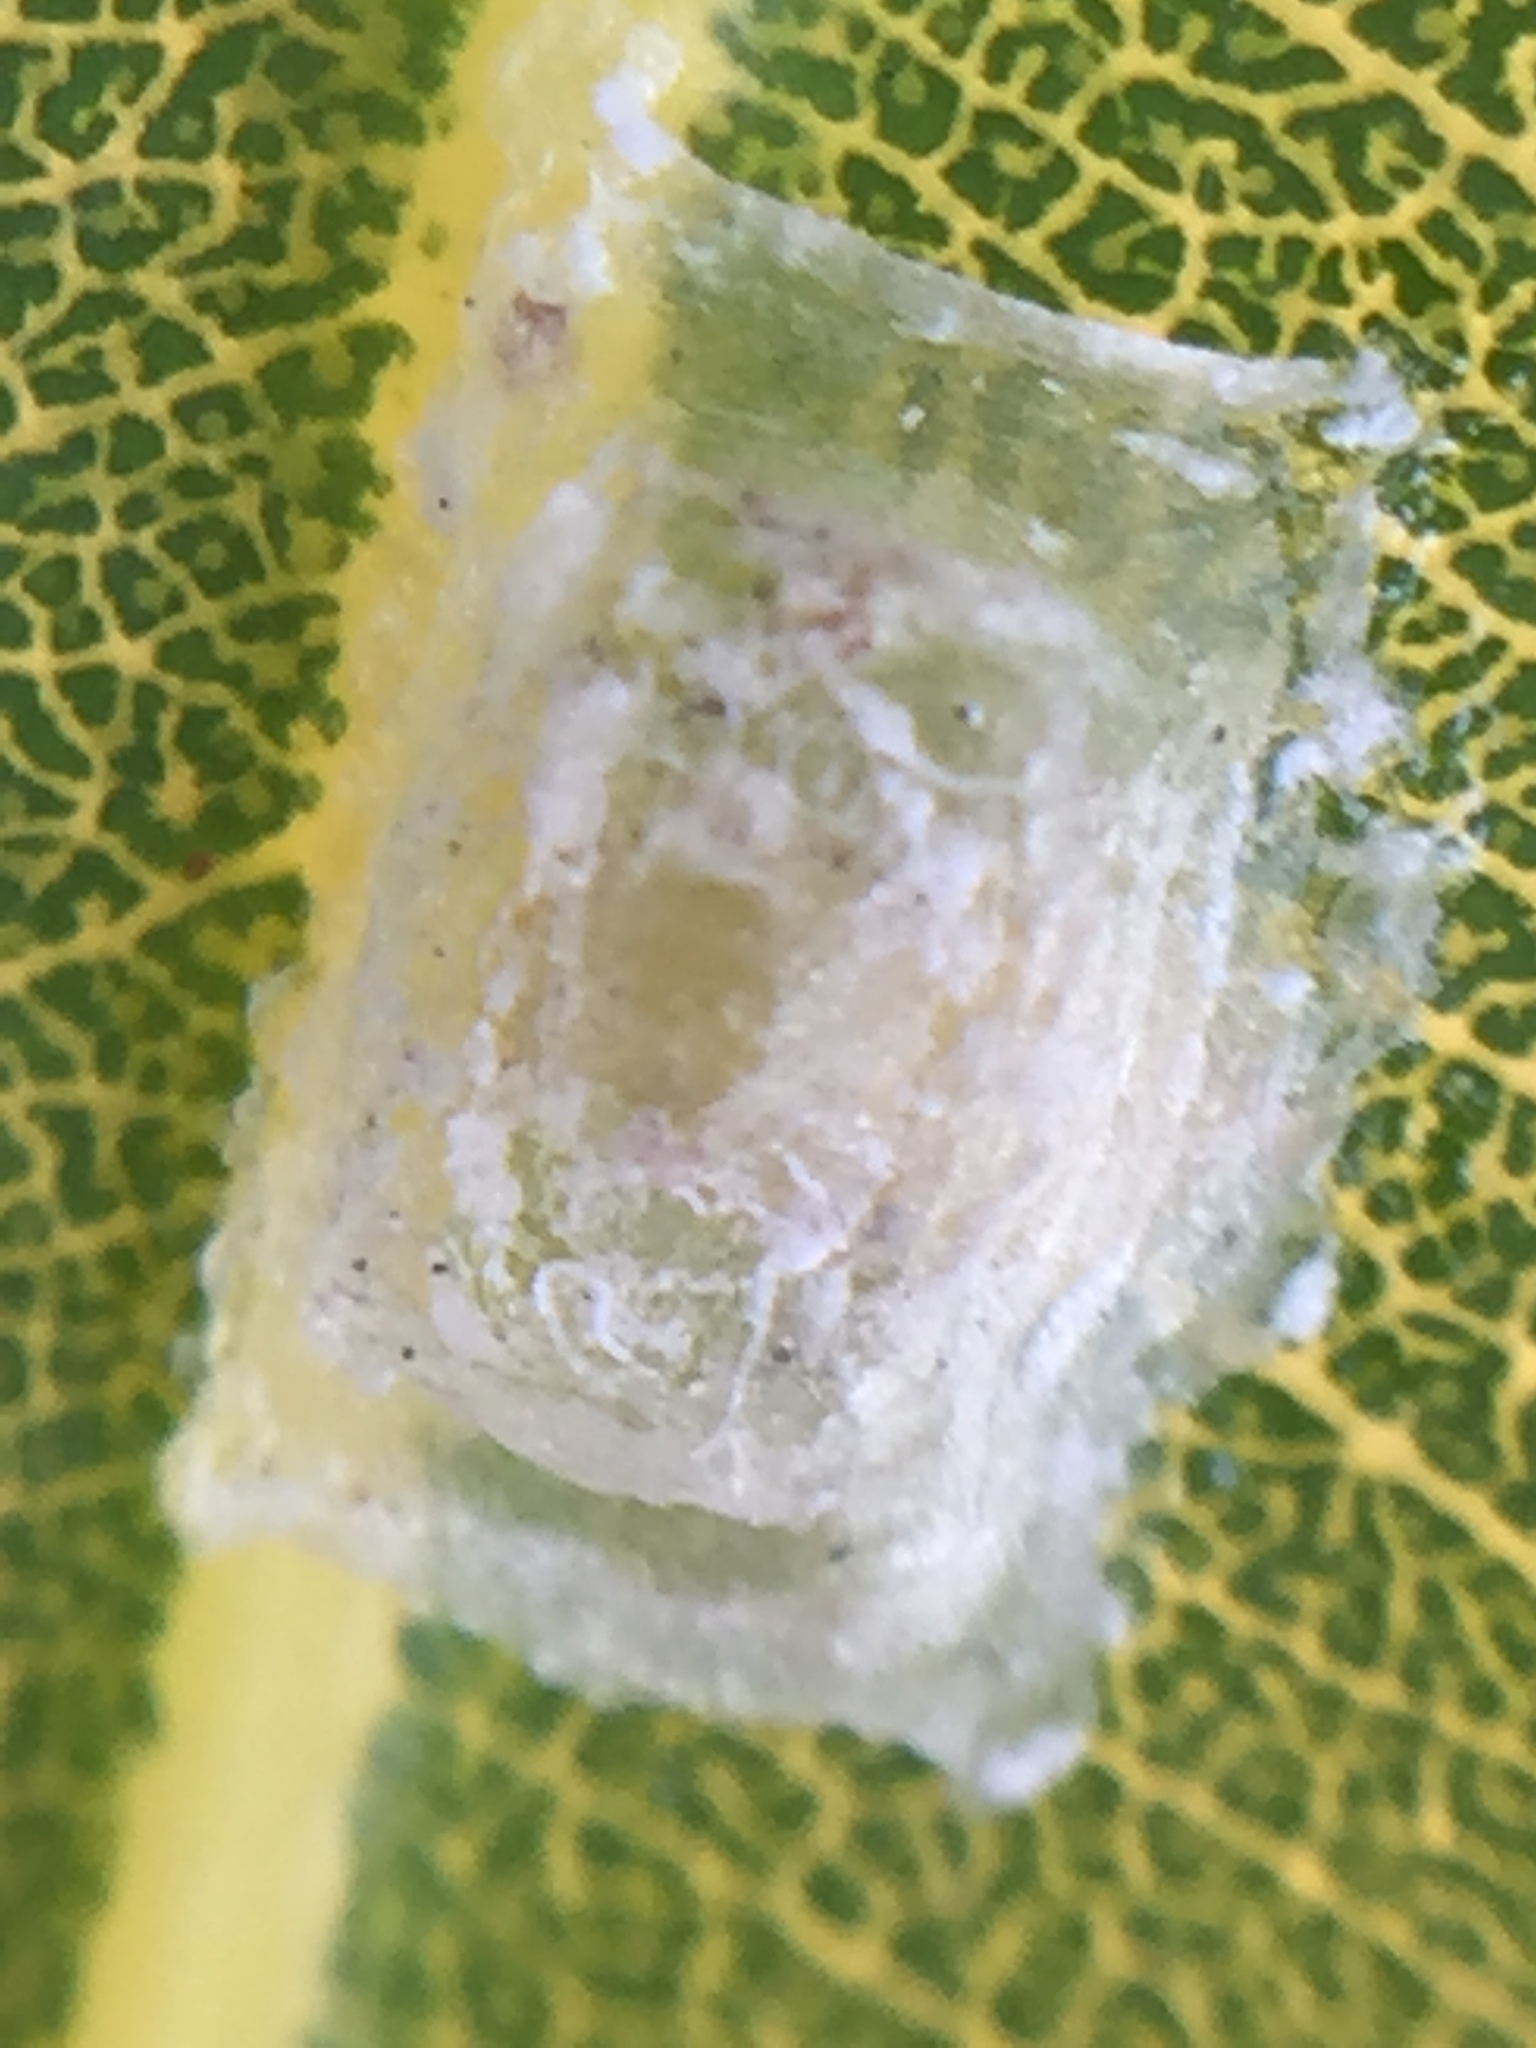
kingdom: Animalia
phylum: Arthropoda
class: Insecta
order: Hemiptera
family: Aphalaridae
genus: Glycaspis
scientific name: Glycaspis granulata
